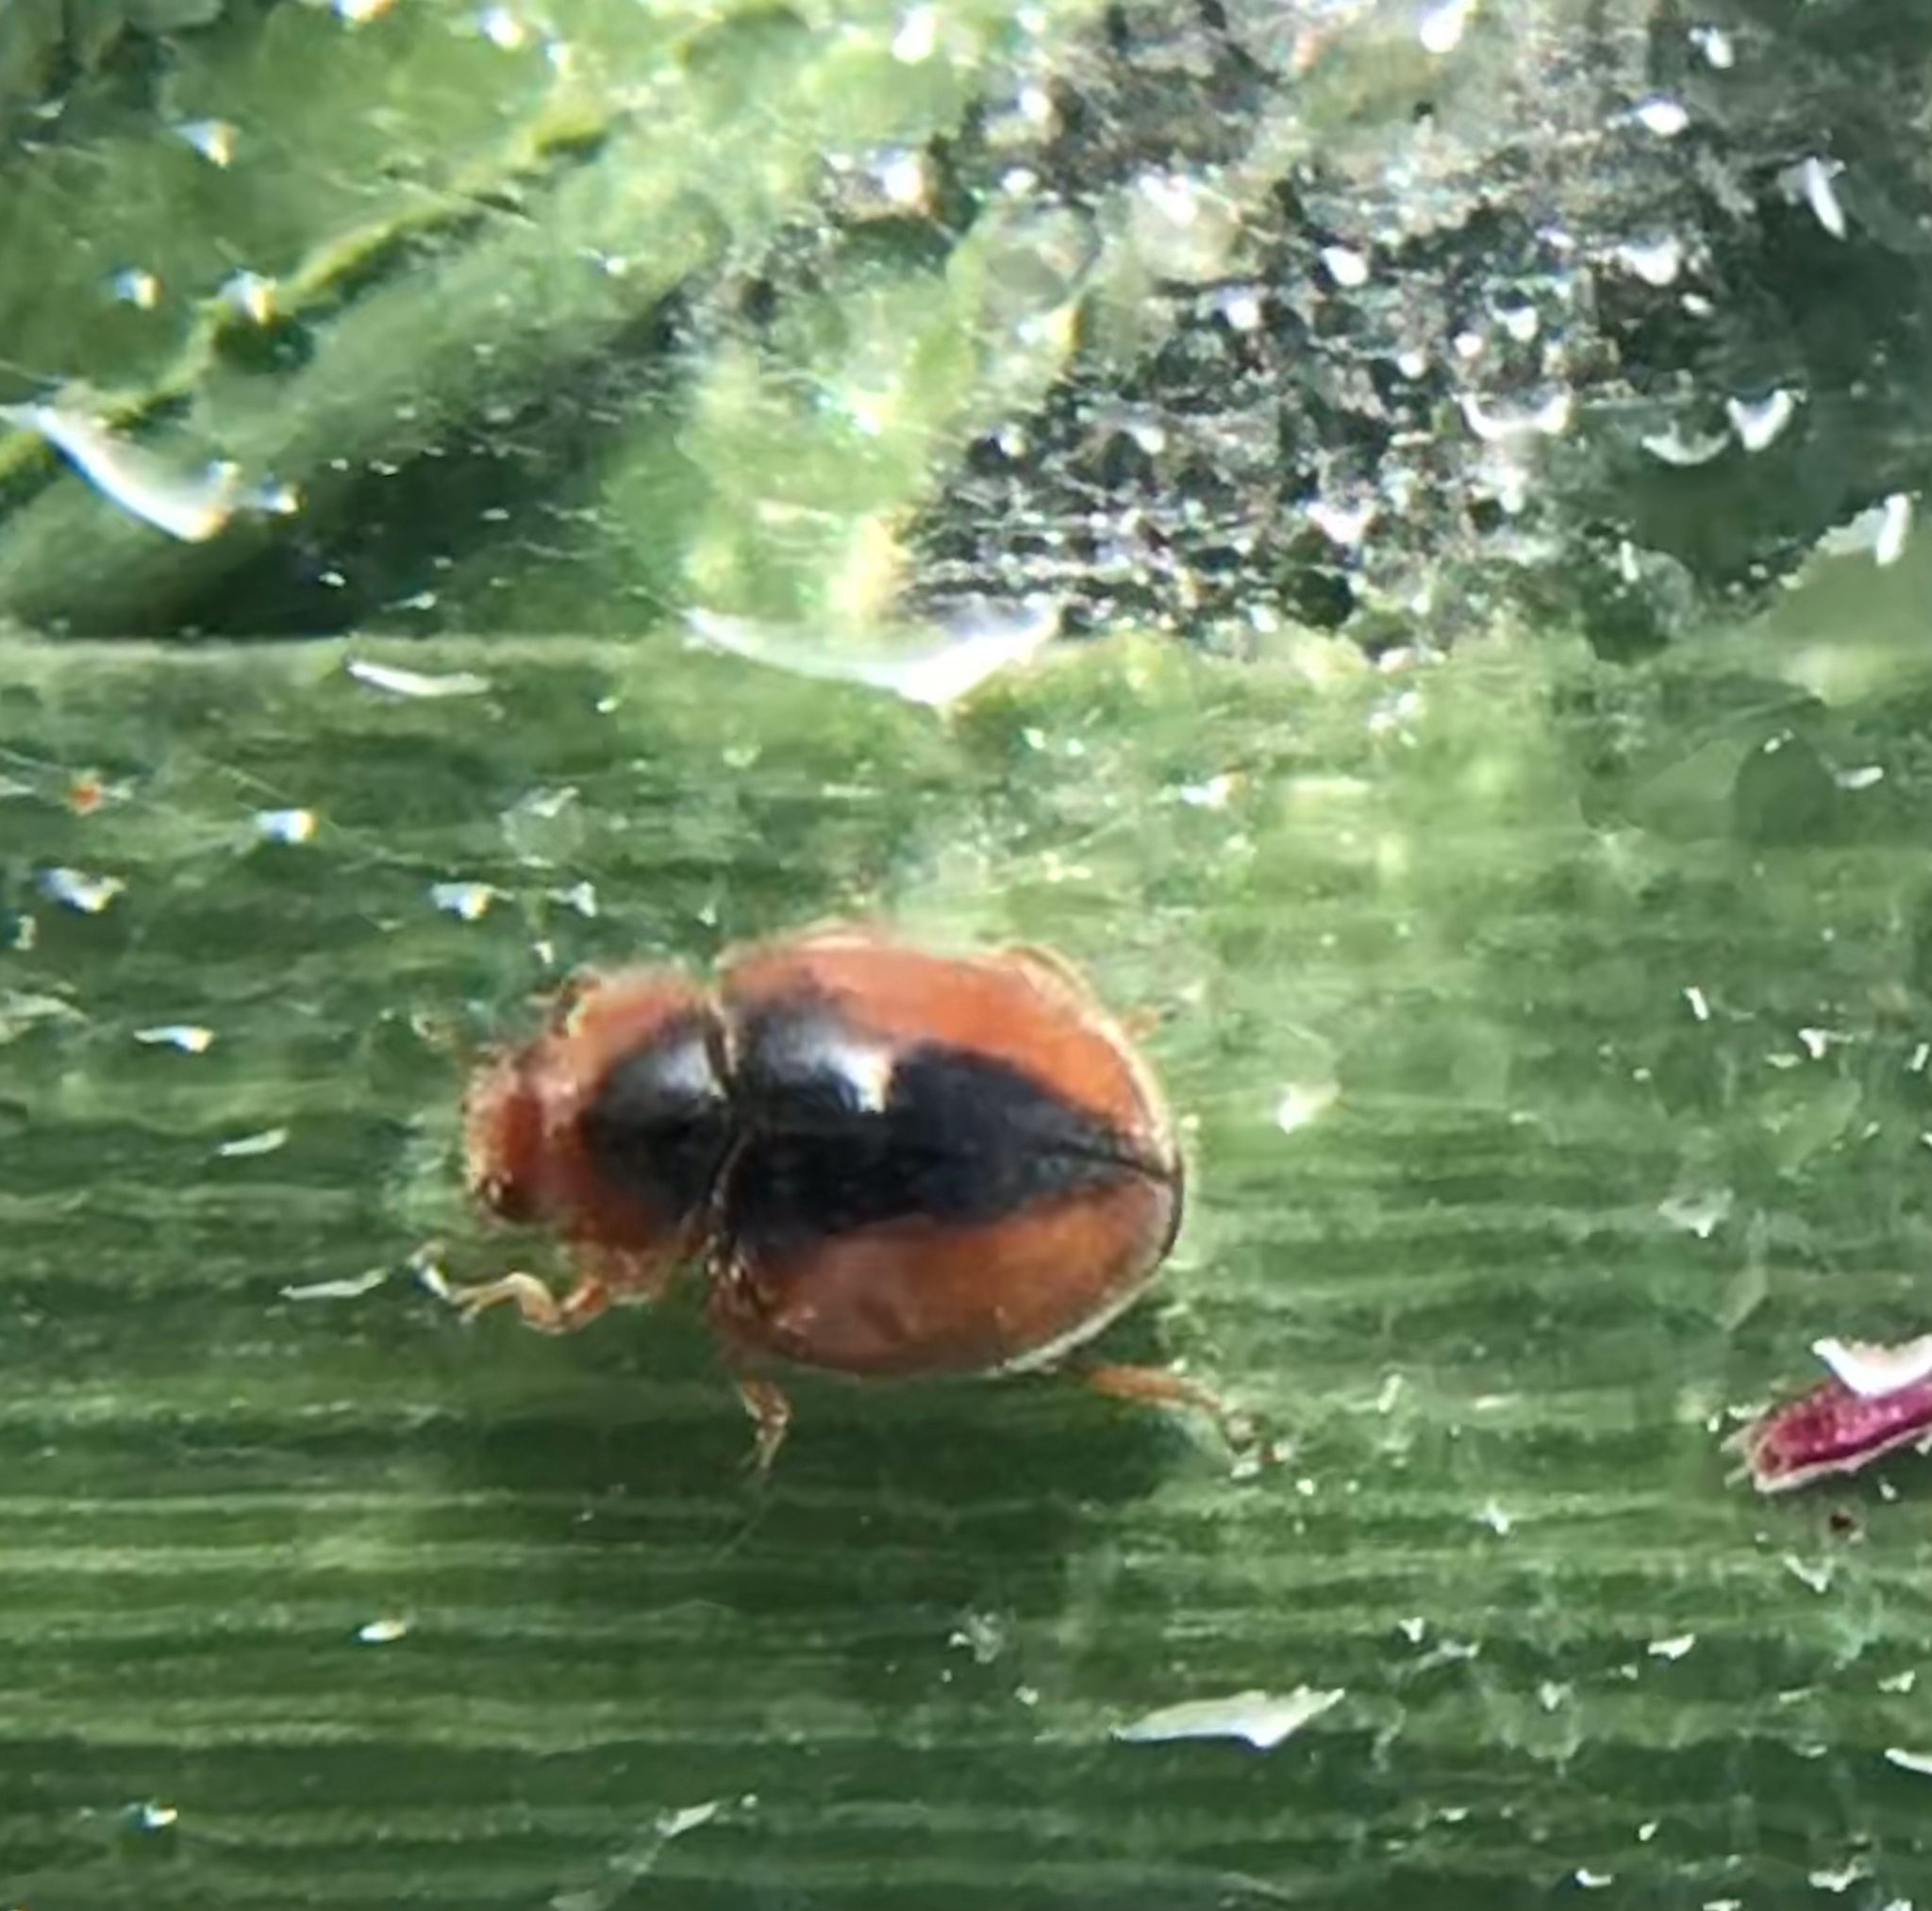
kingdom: Animalia
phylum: Arthropoda
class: Insecta
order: Coleoptera
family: Coccinellidae
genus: Scymnus
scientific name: Scymnus loewii
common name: Dusky lady beetle
